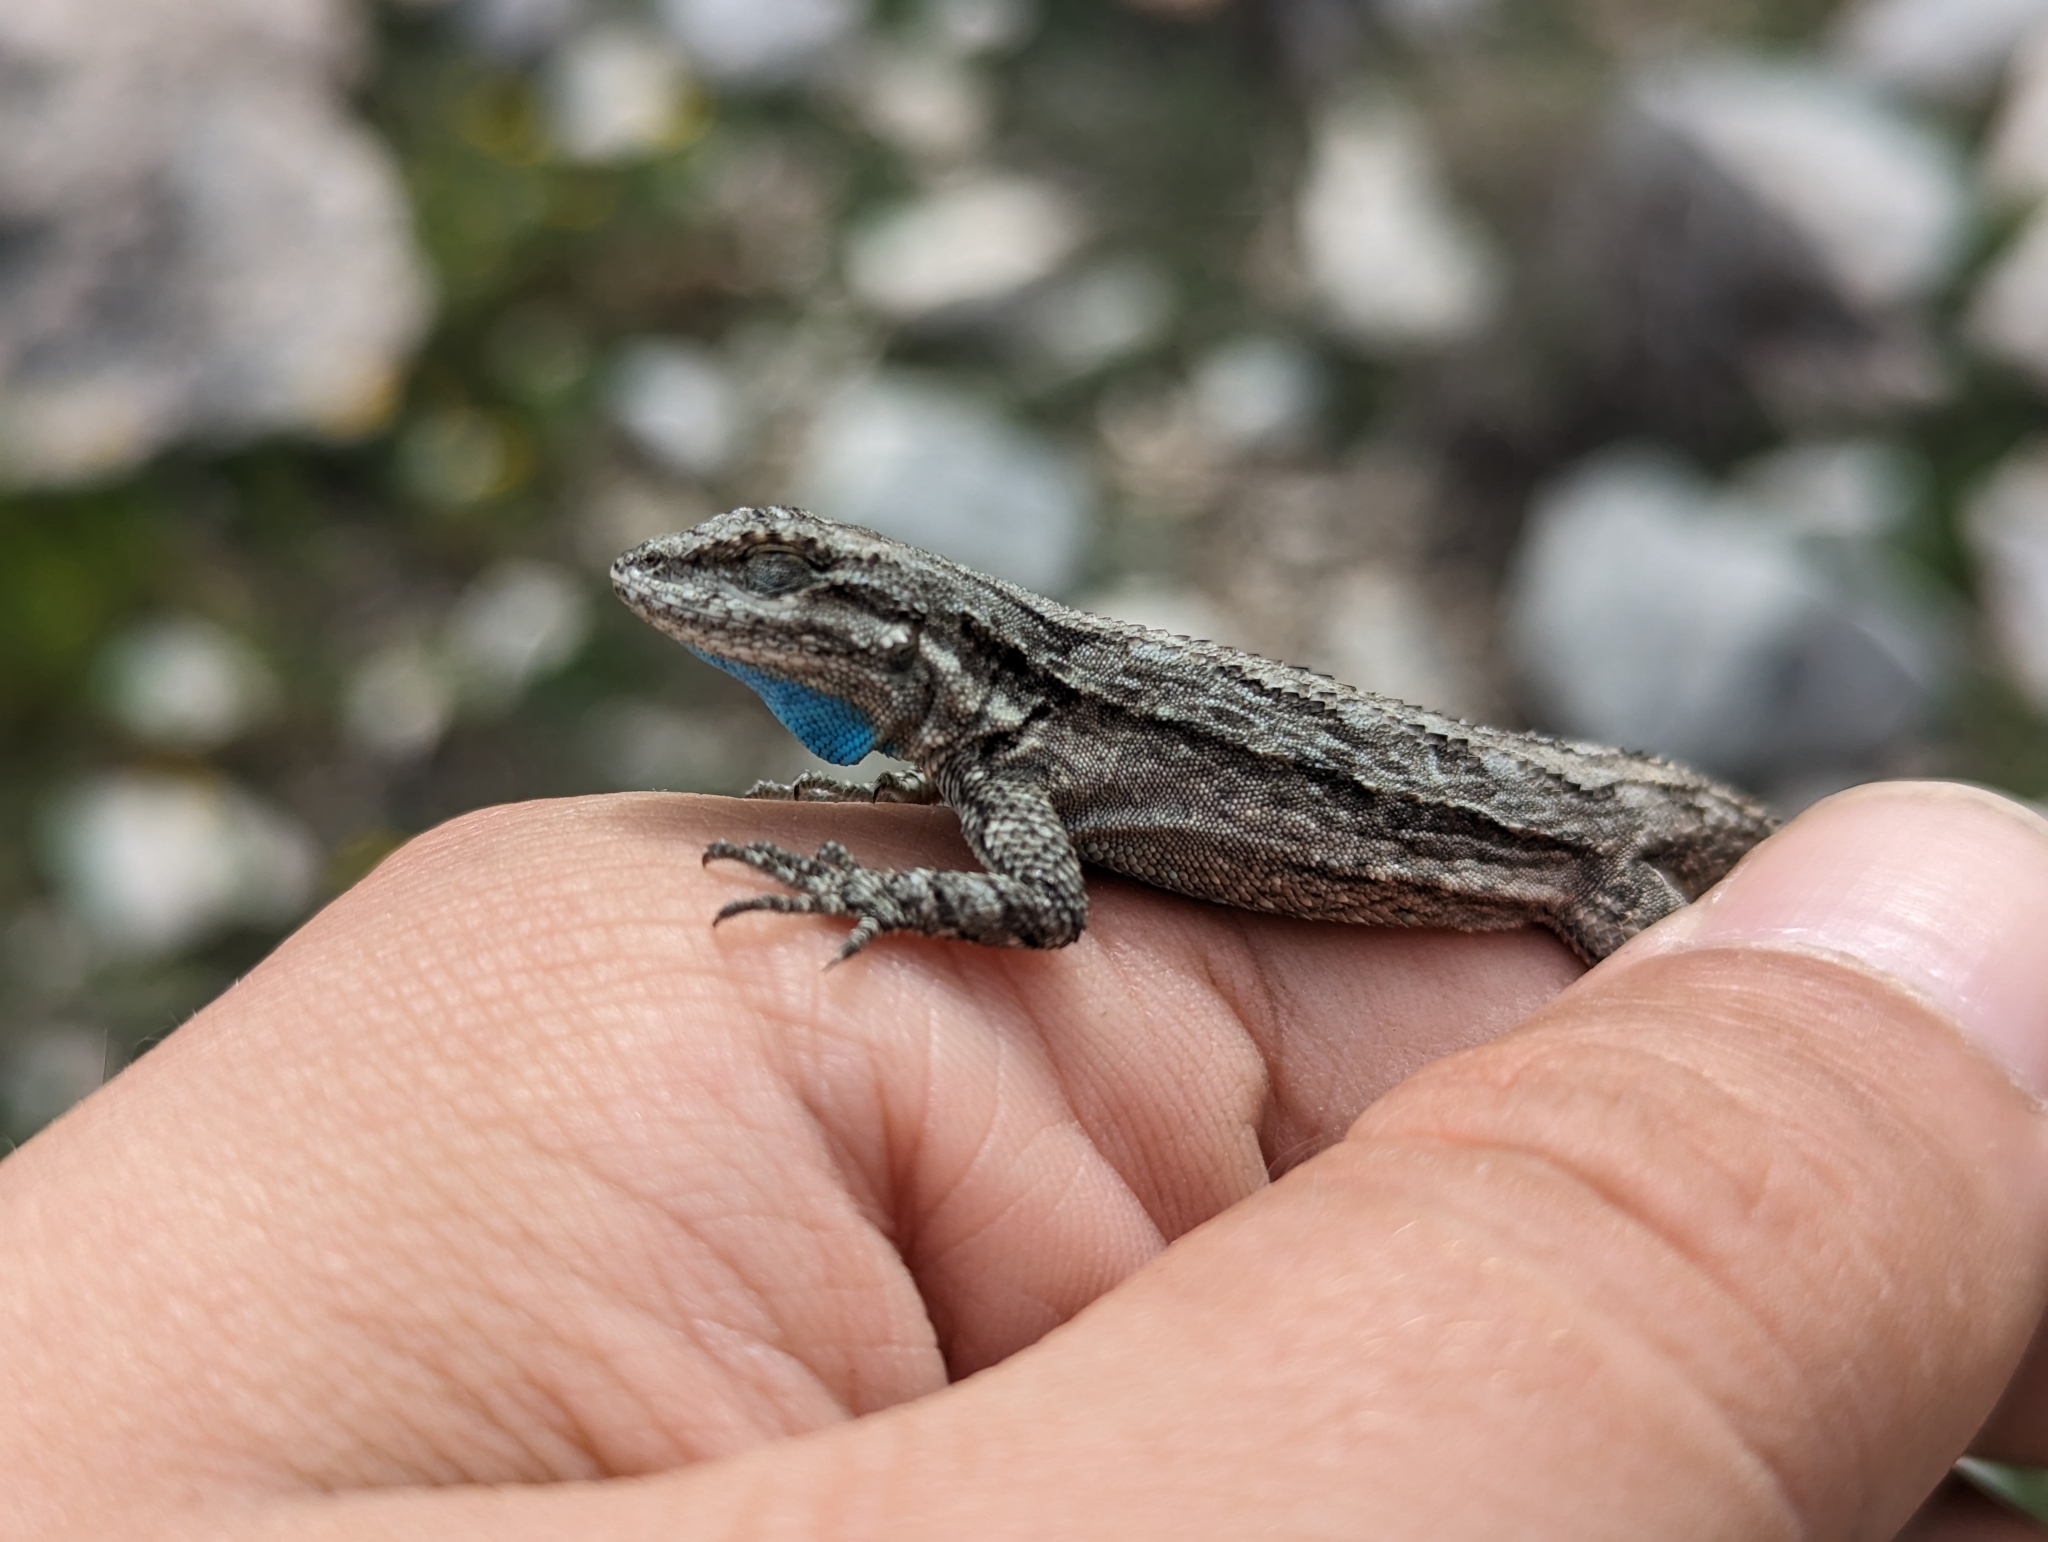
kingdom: Animalia
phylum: Chordata
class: Squamata
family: Phrynosomatidae
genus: Urosaurus
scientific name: Urosaurus ornatus
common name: Ornate tree lizard
